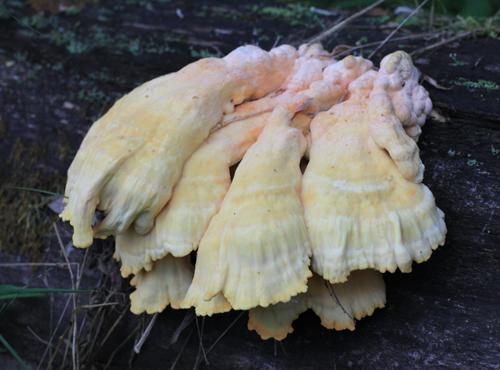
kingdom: Fungi
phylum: Basidiomycota
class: Agaricomycetes
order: Polyporales
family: Laetiporaceae
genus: Laetiporus
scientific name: Laetiporus sulphureus
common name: Chicken of the woods
